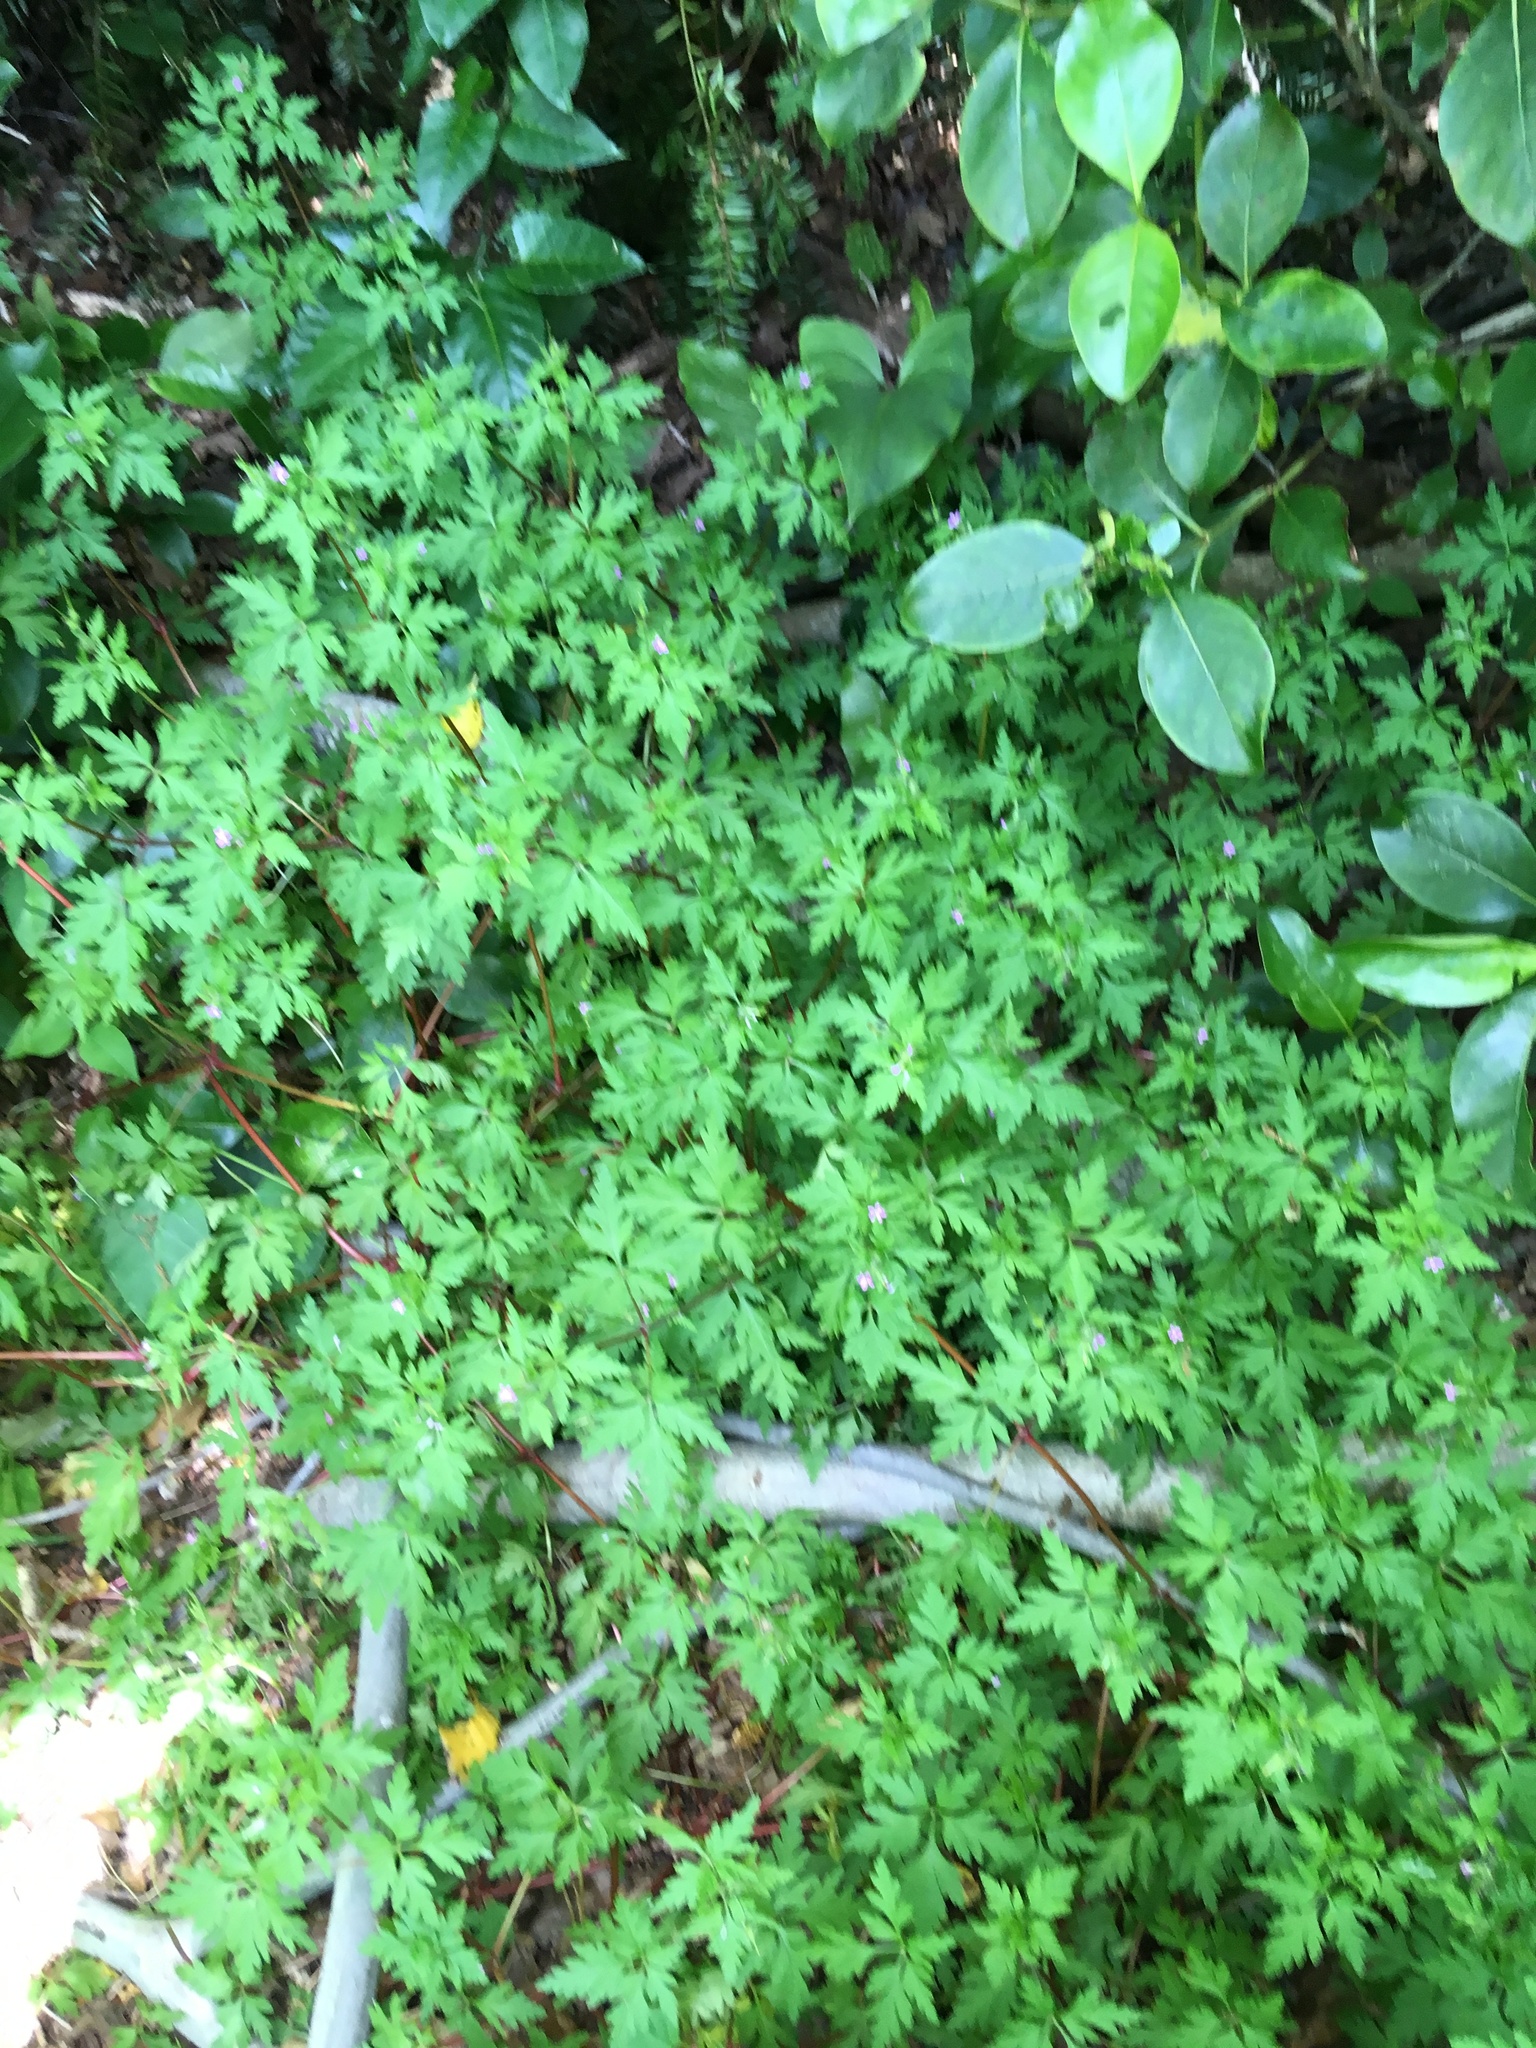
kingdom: Plantae
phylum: Tracheophyta
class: Magnoliopsida
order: Geraniales
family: Geraniaceae
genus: Geranium
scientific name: Geranium robertianum
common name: Herb-robert
